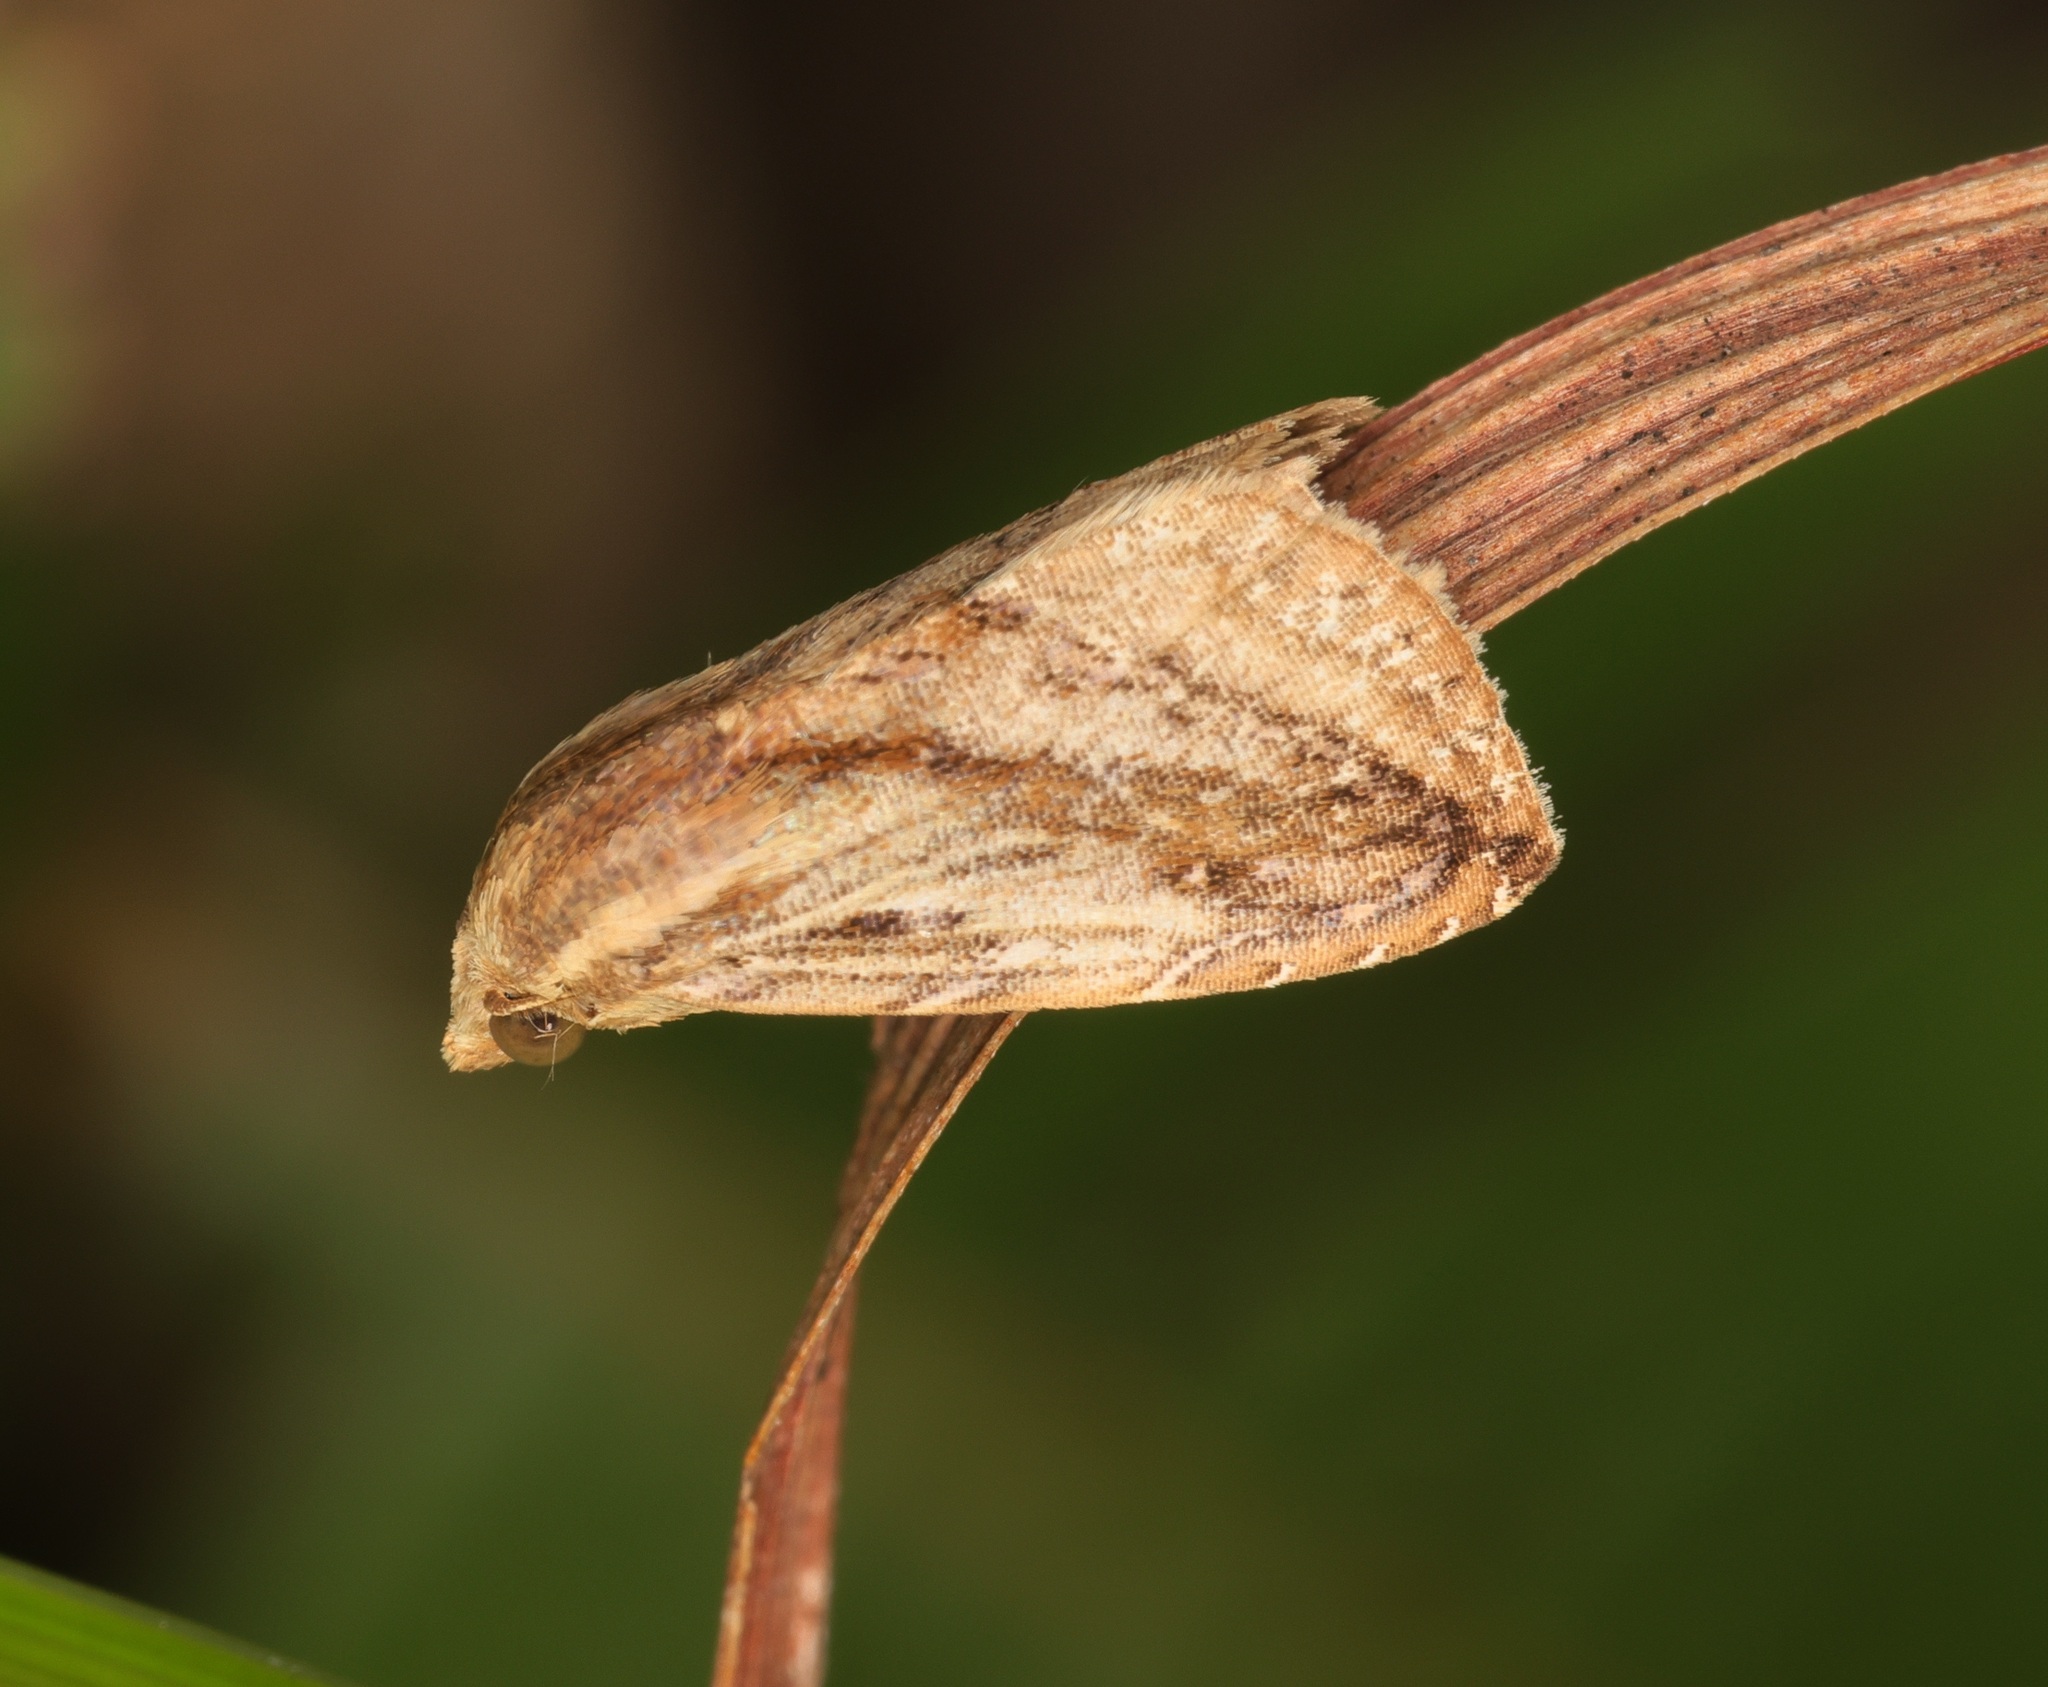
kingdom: Animalia
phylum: Arthropoda
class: Insecta
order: Lepidoptera
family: Erebidae
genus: Rivula
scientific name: Rivula
